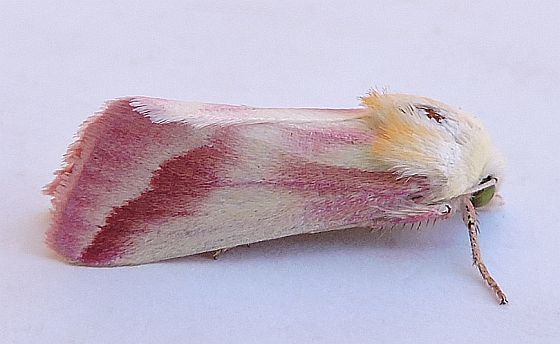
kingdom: Animalia
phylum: Arthropoda
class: Insecta
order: Lepidoptera
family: Noctuidae
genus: Schinia
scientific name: Schinia gaurae
